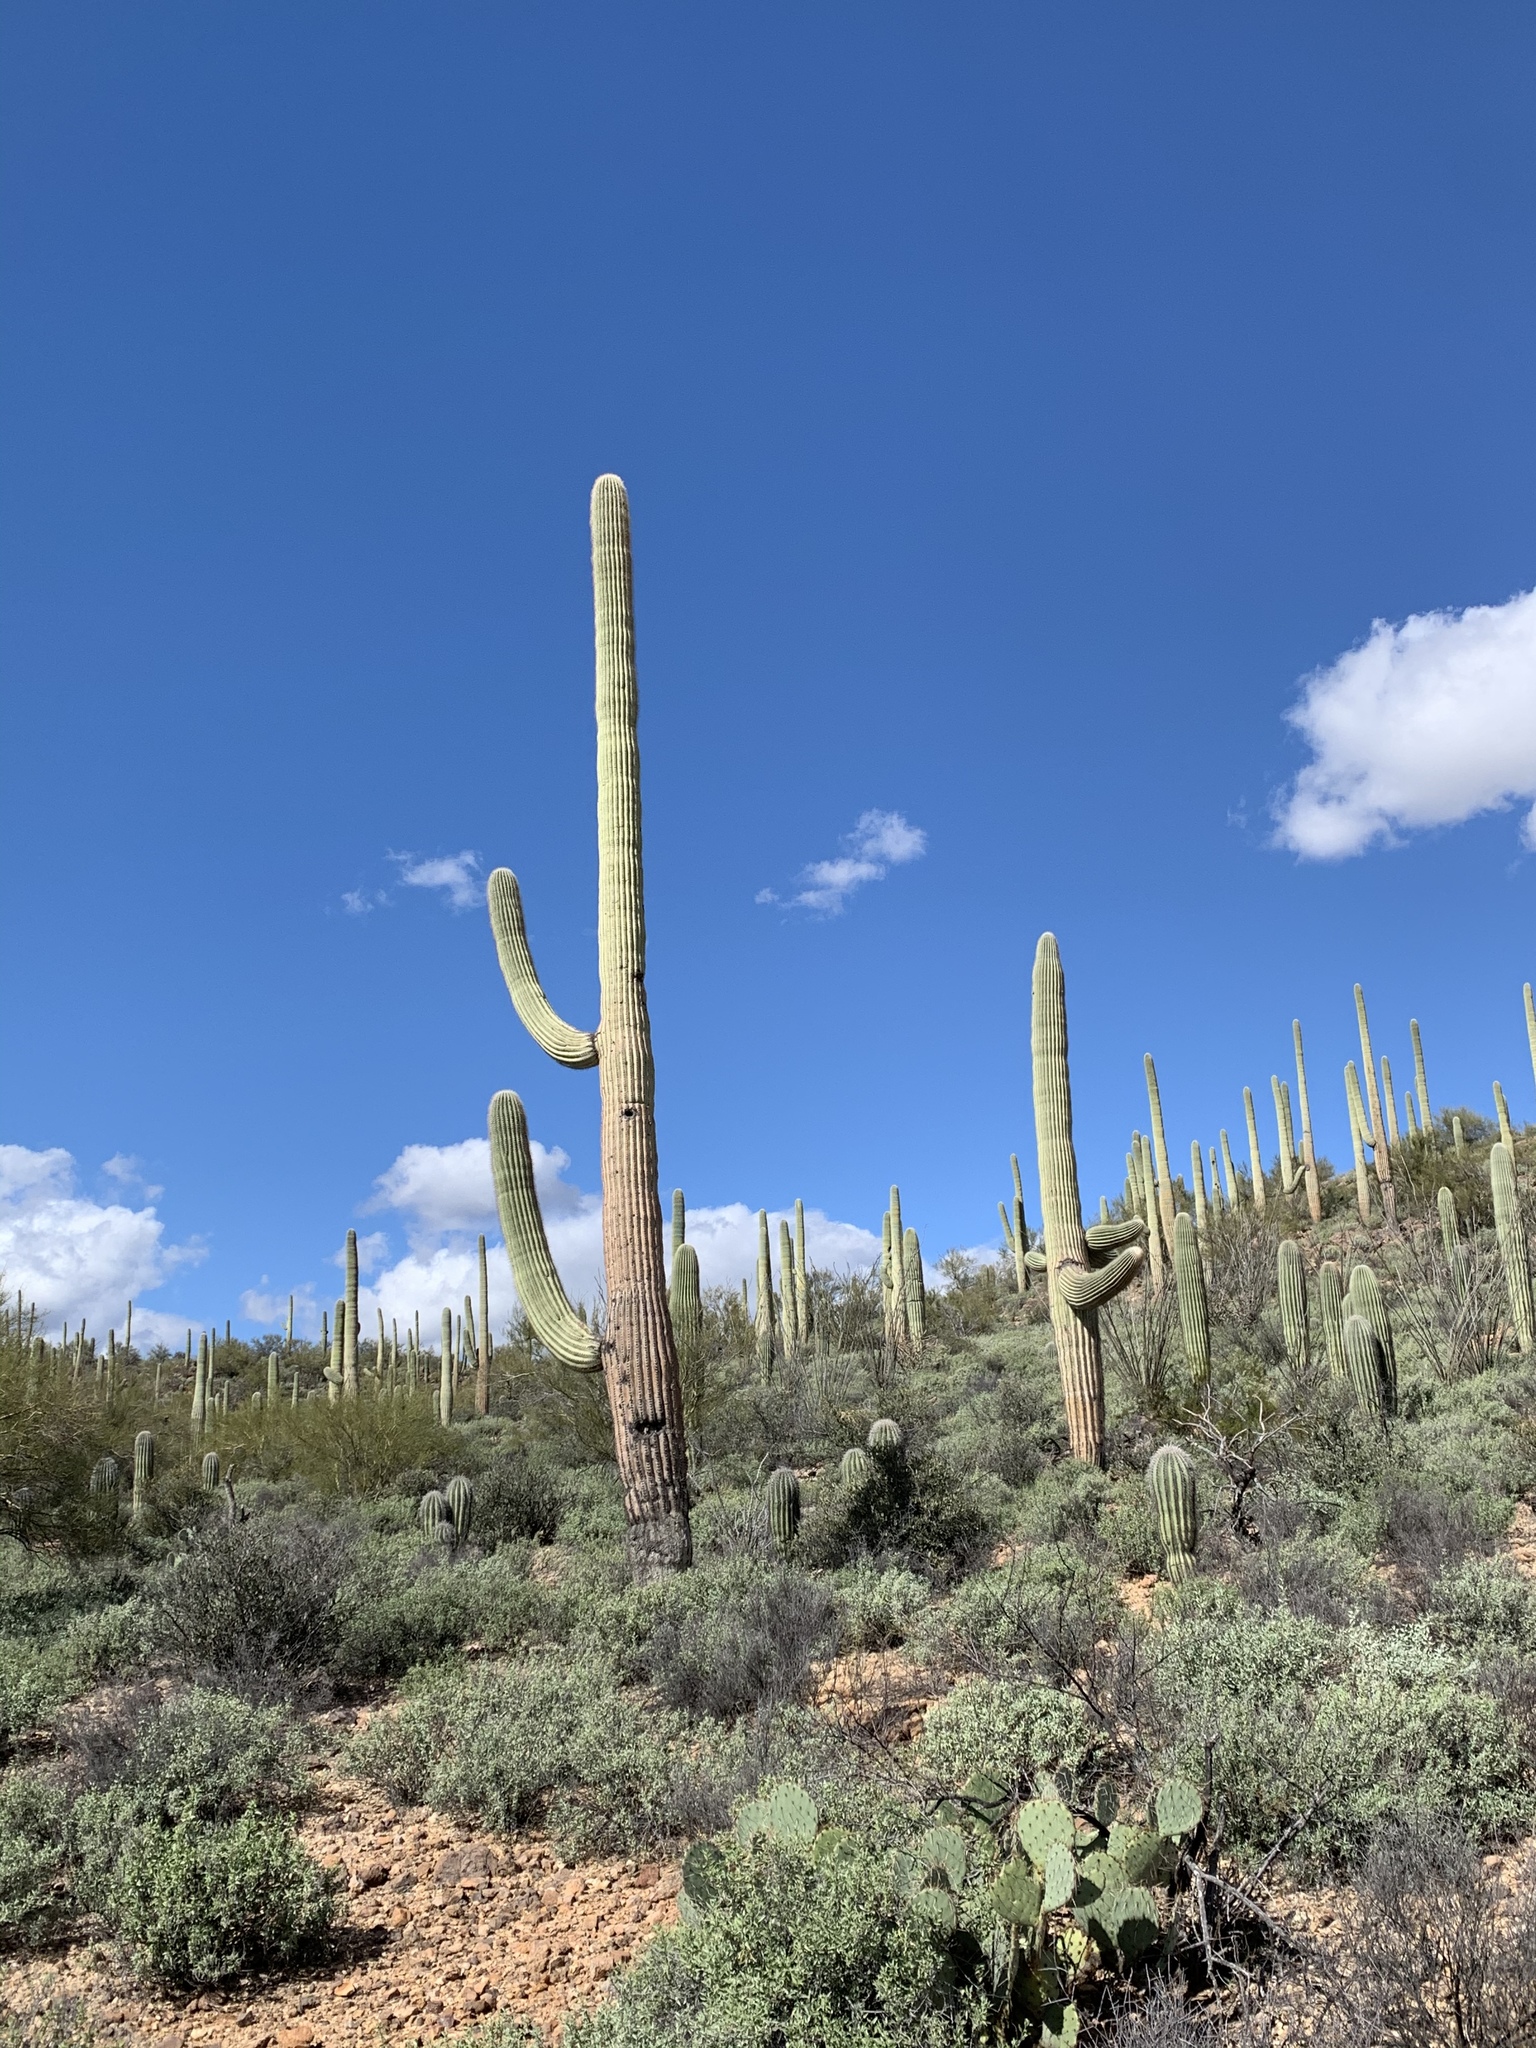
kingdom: Plantae
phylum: Tracheophyta
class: Magnoliopsida
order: Caryophyllales
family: Cactaceae
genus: Carnegiea
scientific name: Carnegiea gigantea
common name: Saguaro
